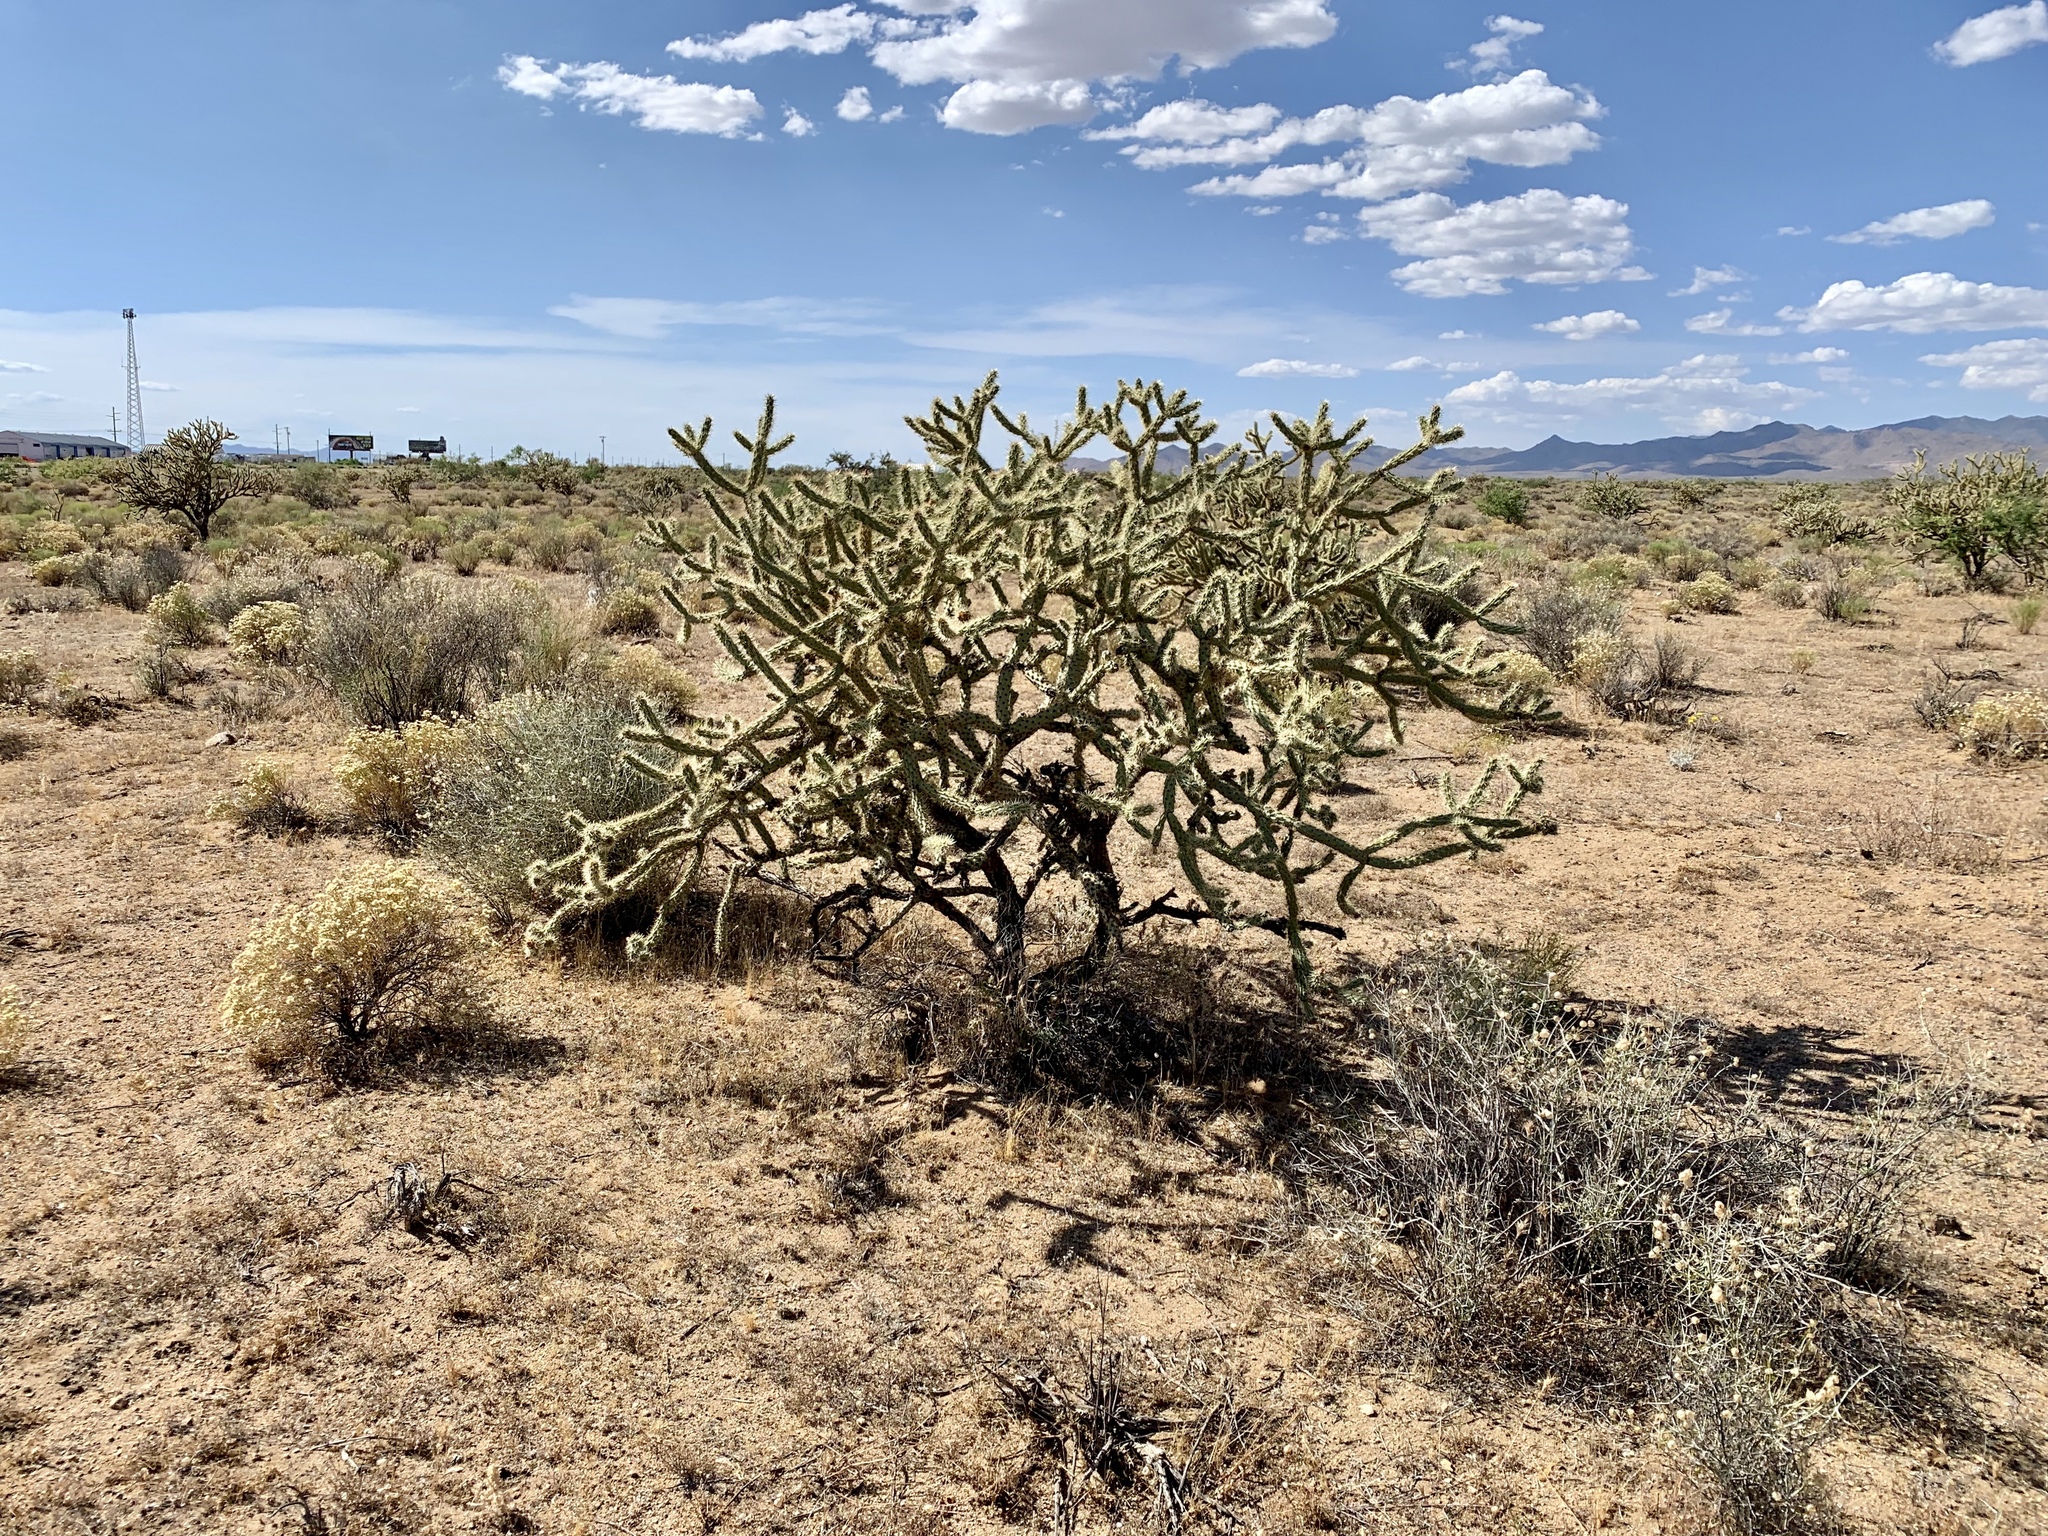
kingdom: Plantae
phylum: Tracheophyta
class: Magnoliopsida
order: Caryophyllales
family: Cactaceae
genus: Cylindropuntia
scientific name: Cylindropuntia acanthocarpa
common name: Buckhorn cholla
